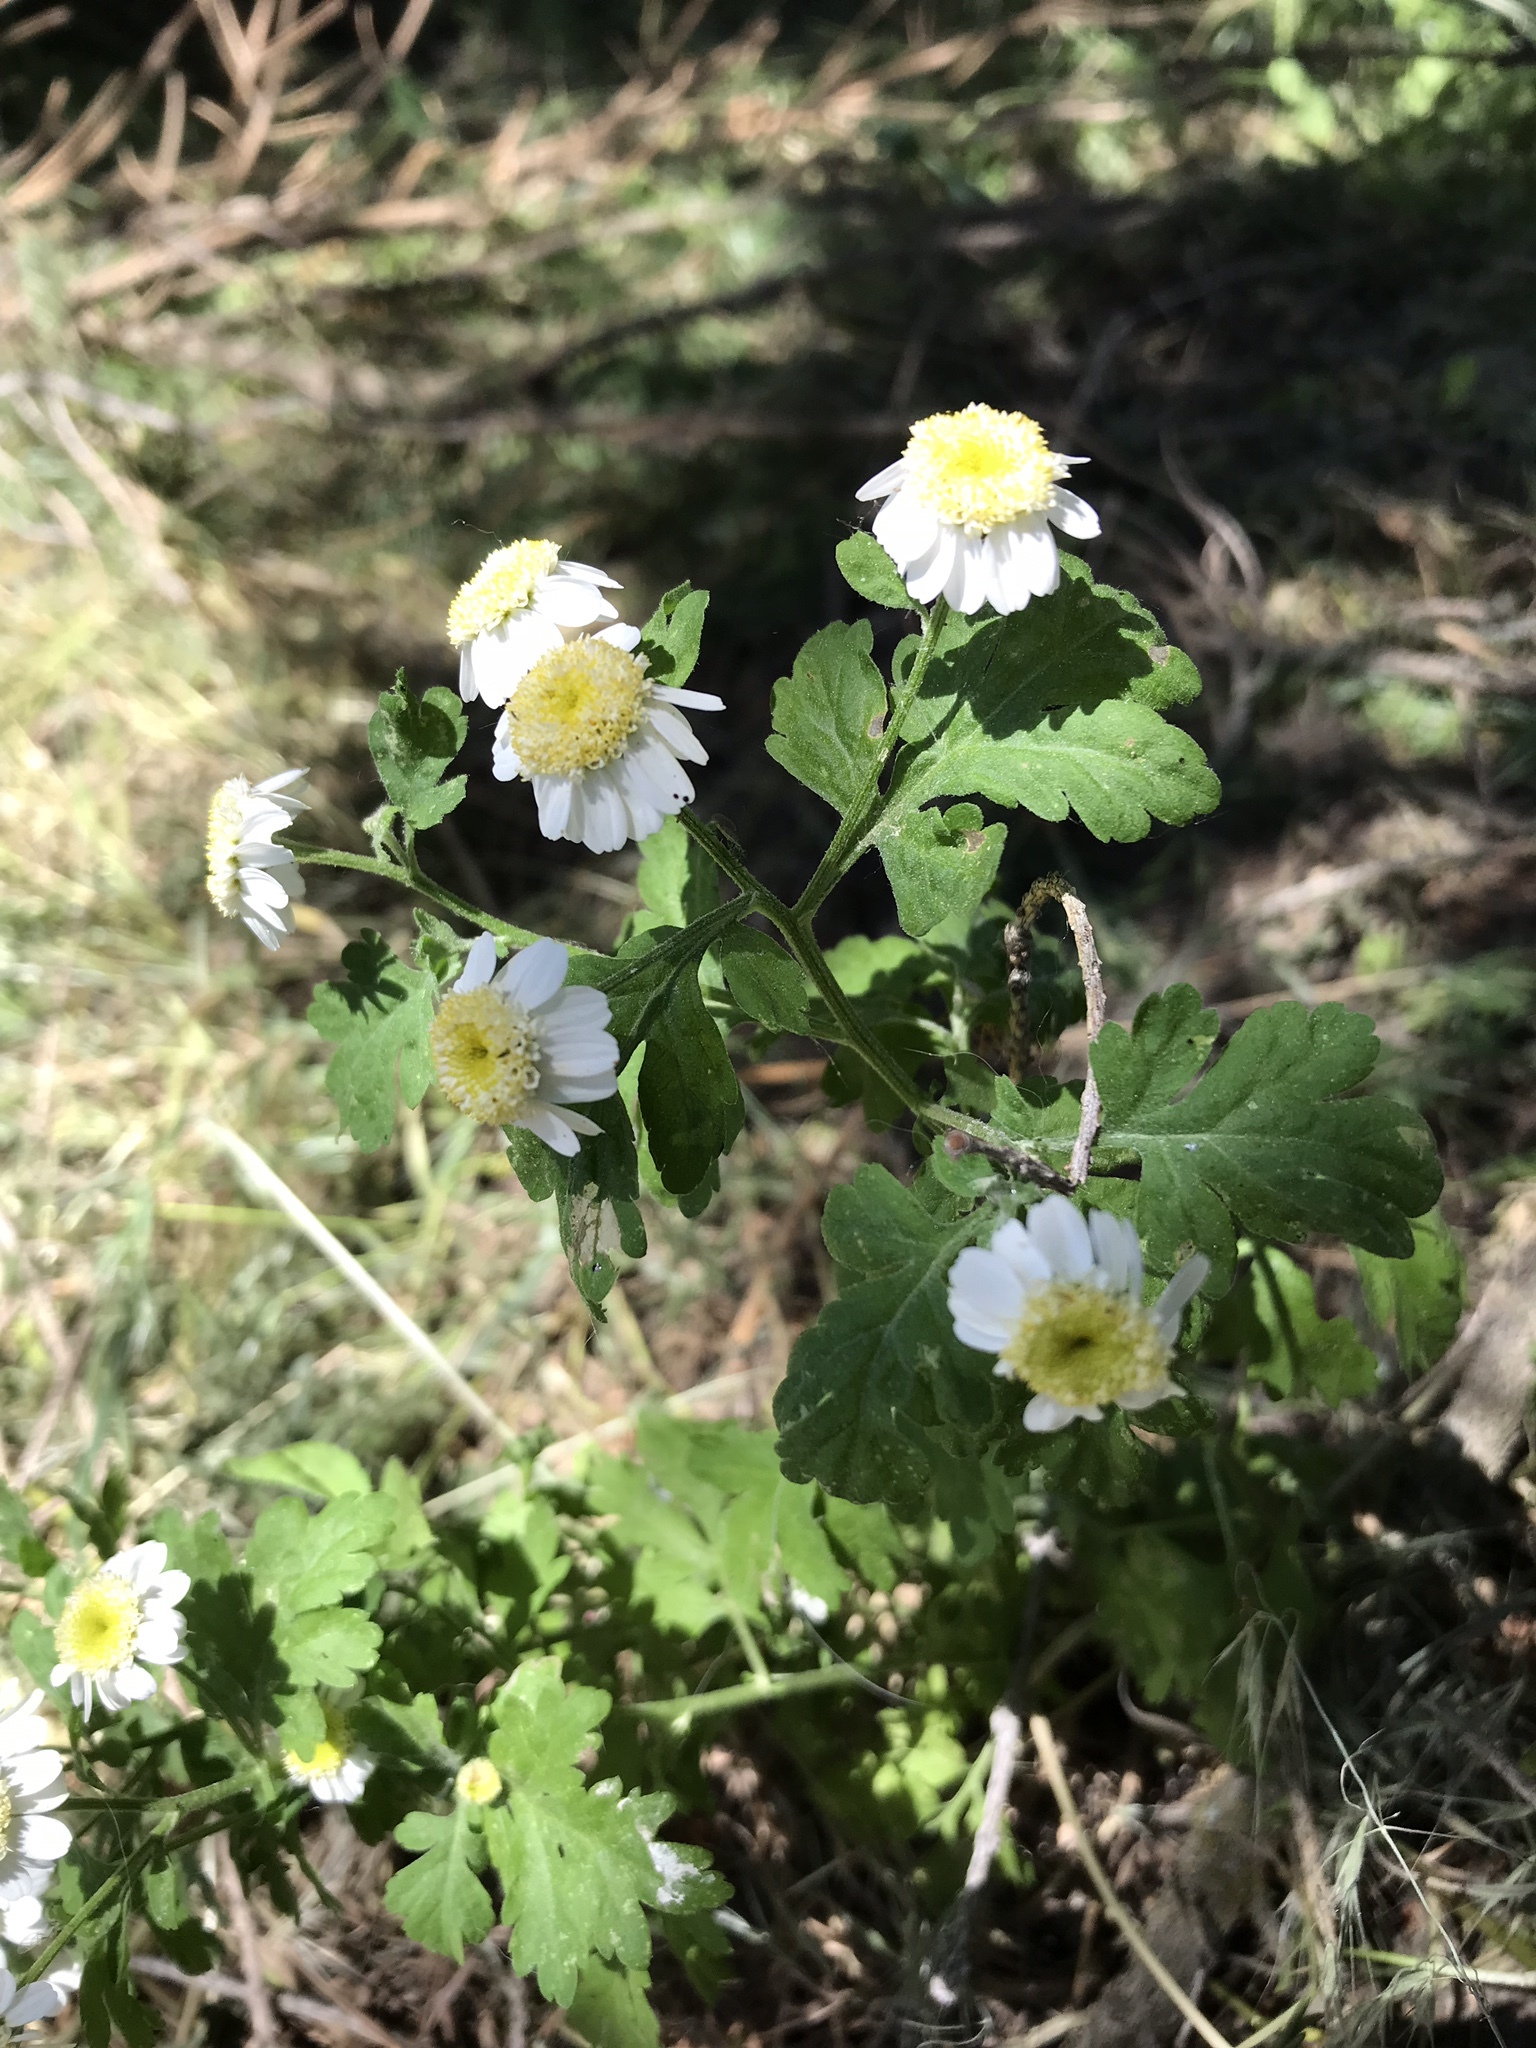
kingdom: Plantae
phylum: Tracheophyta
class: Magnoliopsida
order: Asterales
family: Asteraceae
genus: Tanacetum
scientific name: Tanacetum parthenium
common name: Feverfew
